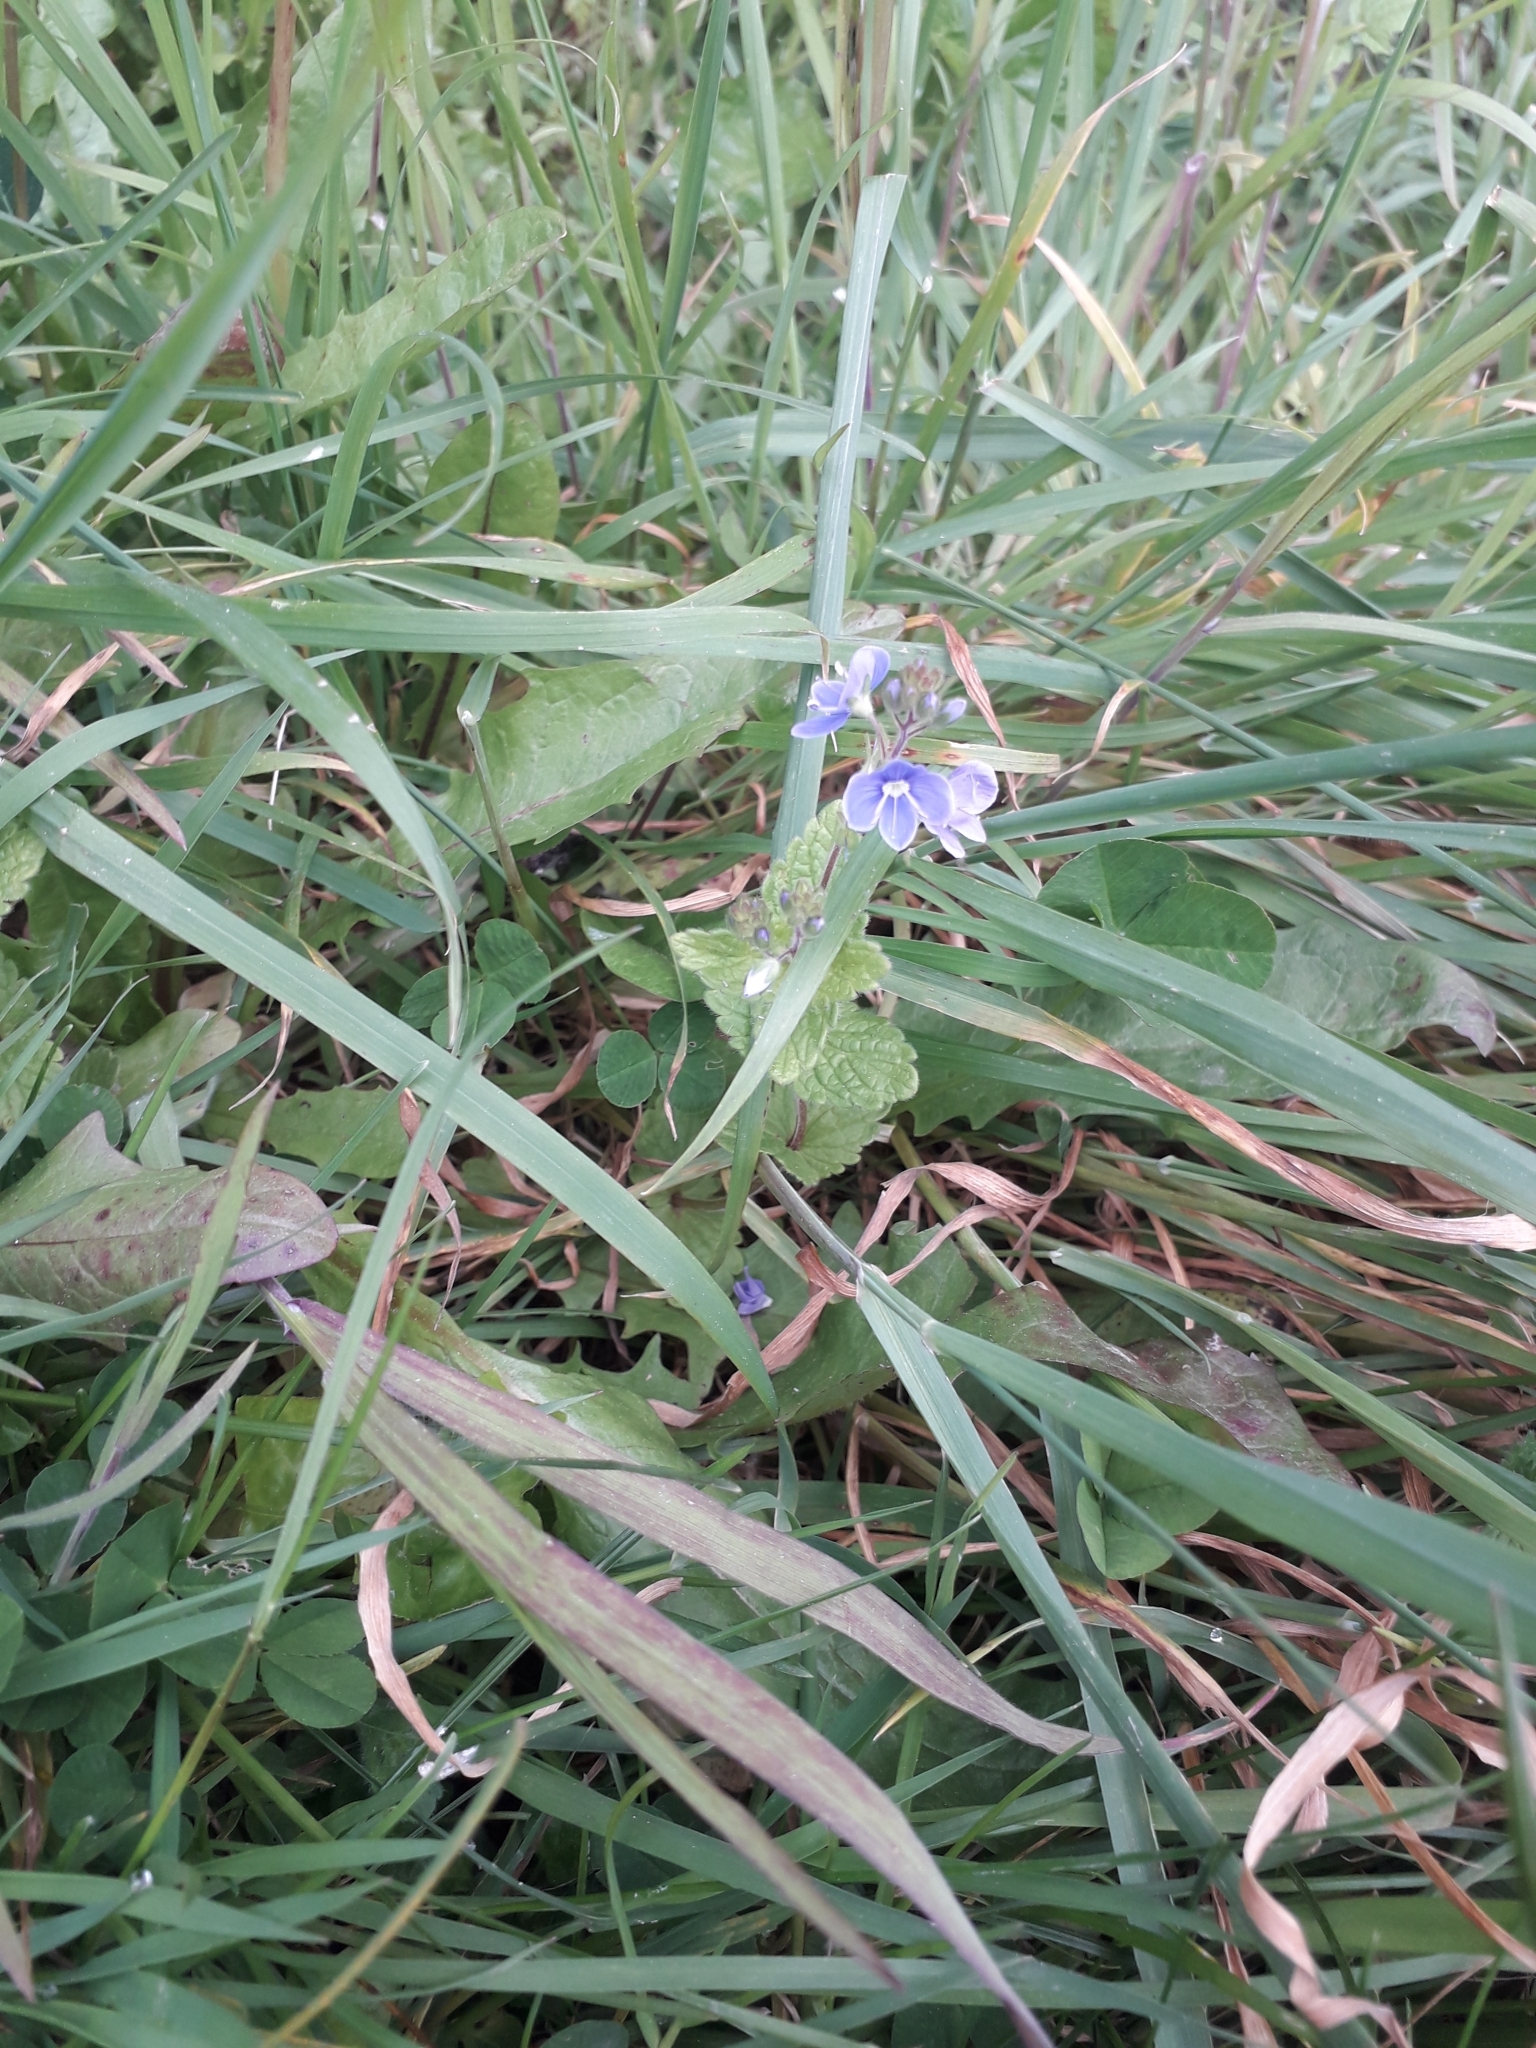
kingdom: Plantae
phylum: Tracheophyta
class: Magnoliopsida
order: Lamiales
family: Plantaginaceae
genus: Veronica
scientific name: Veronica chamaedrys
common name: Germander speedwell
